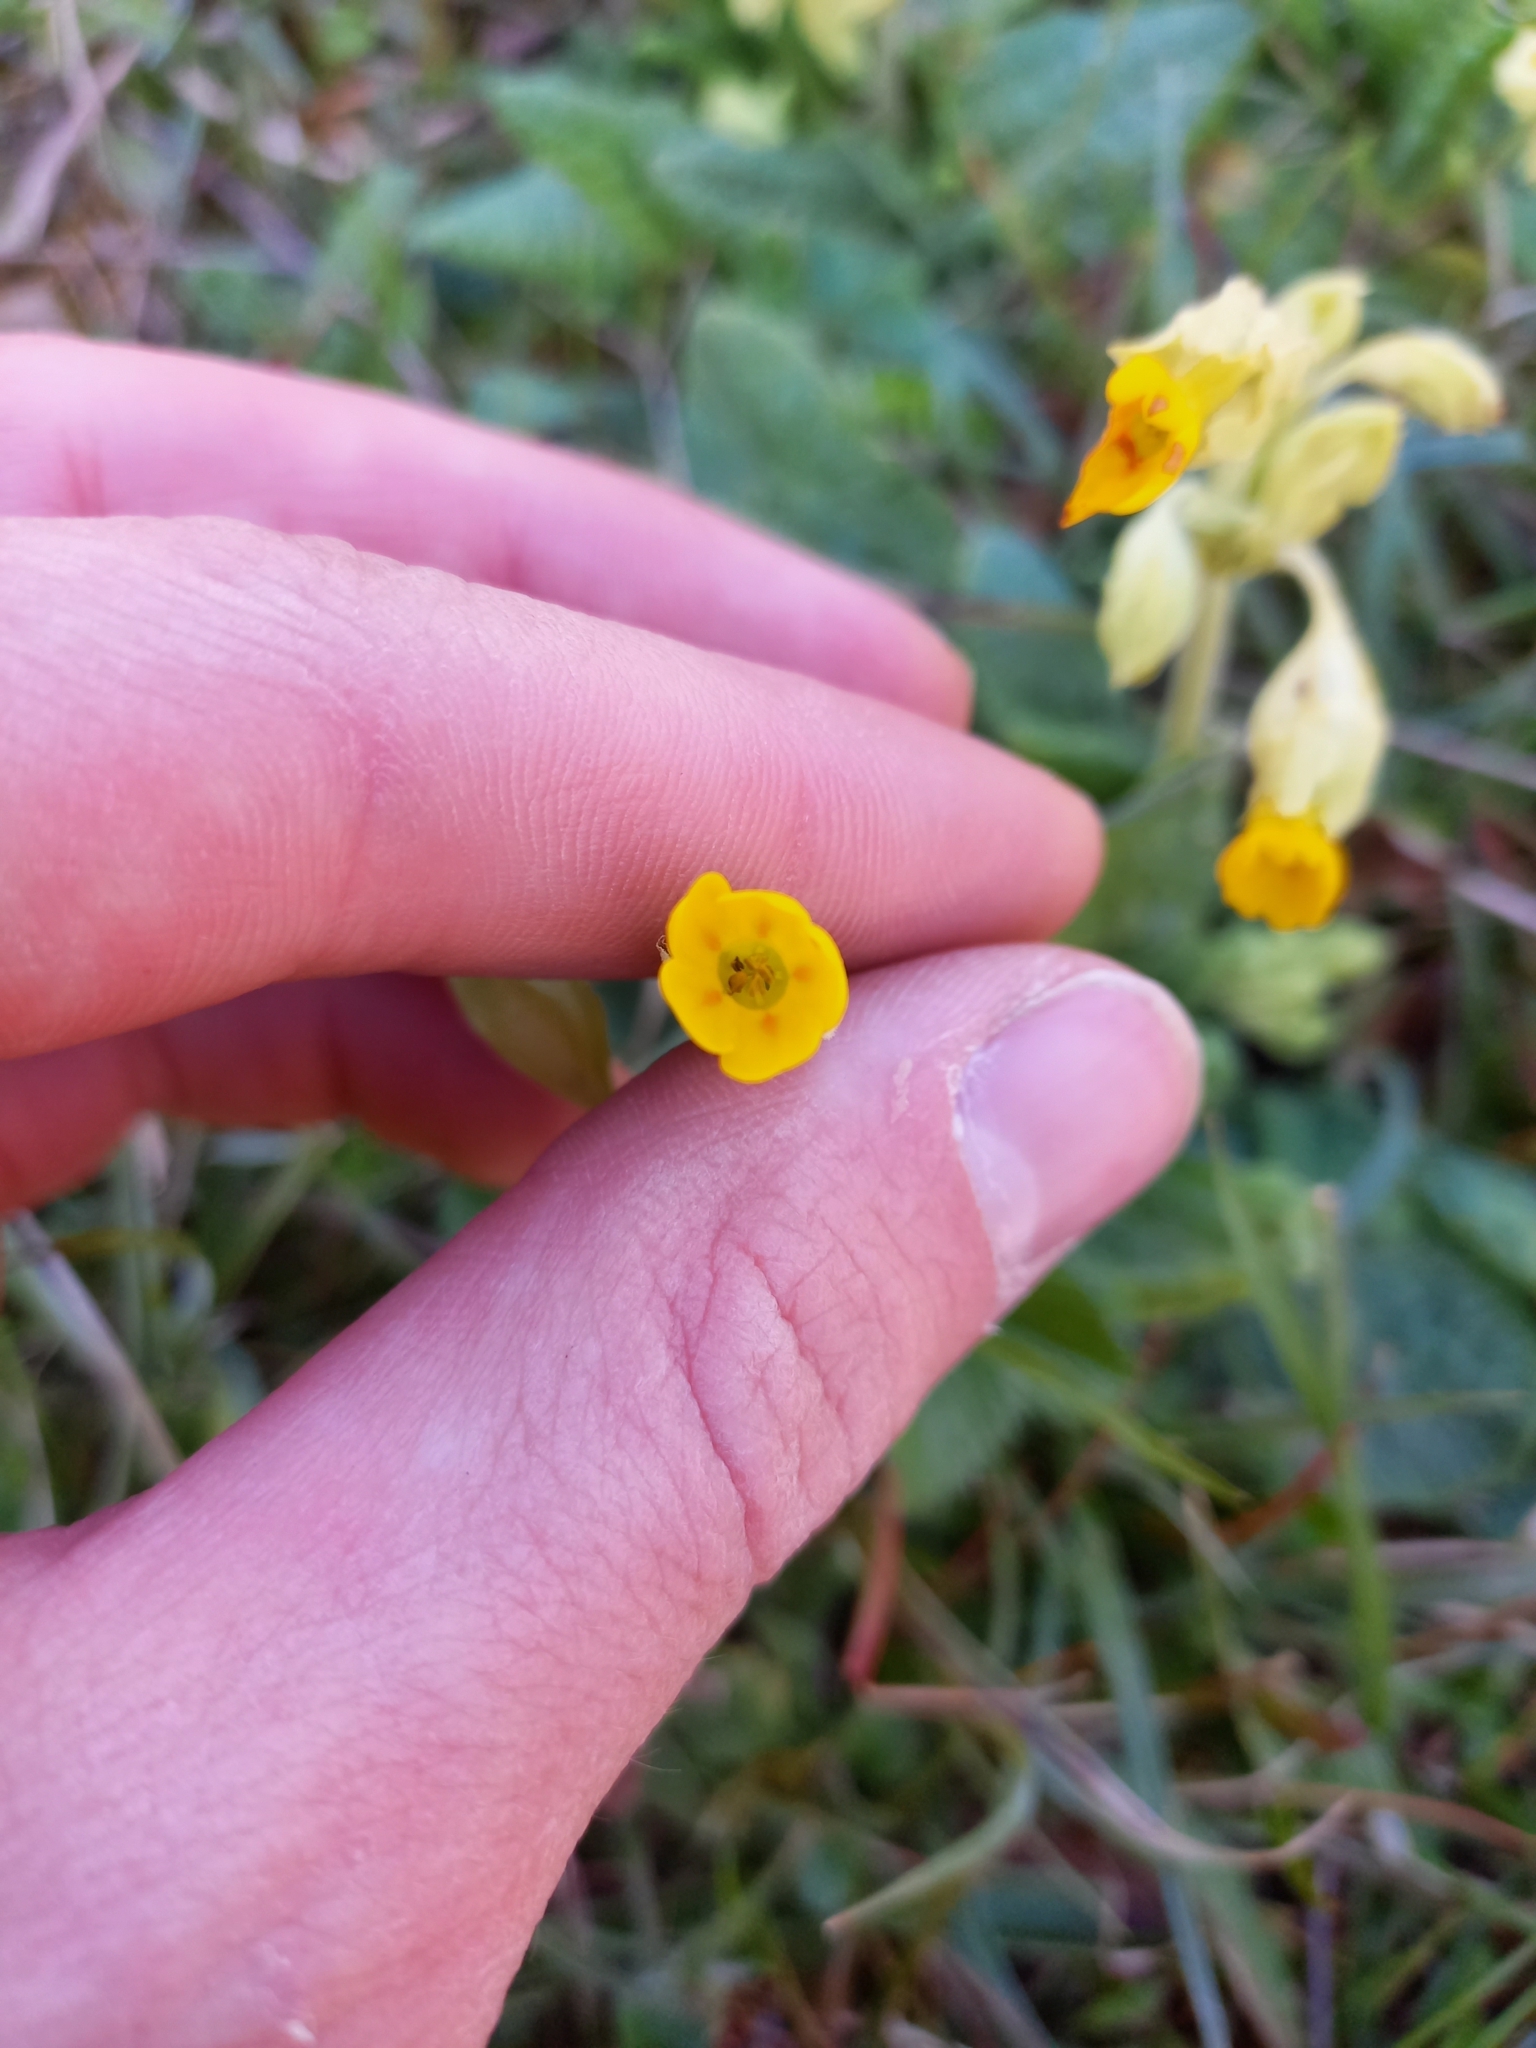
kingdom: Plantae
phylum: Tracheophyta
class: Magnoliopsida
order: Ericales
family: Primulaceae
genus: Primula
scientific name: Primula veris
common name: Cowslip
